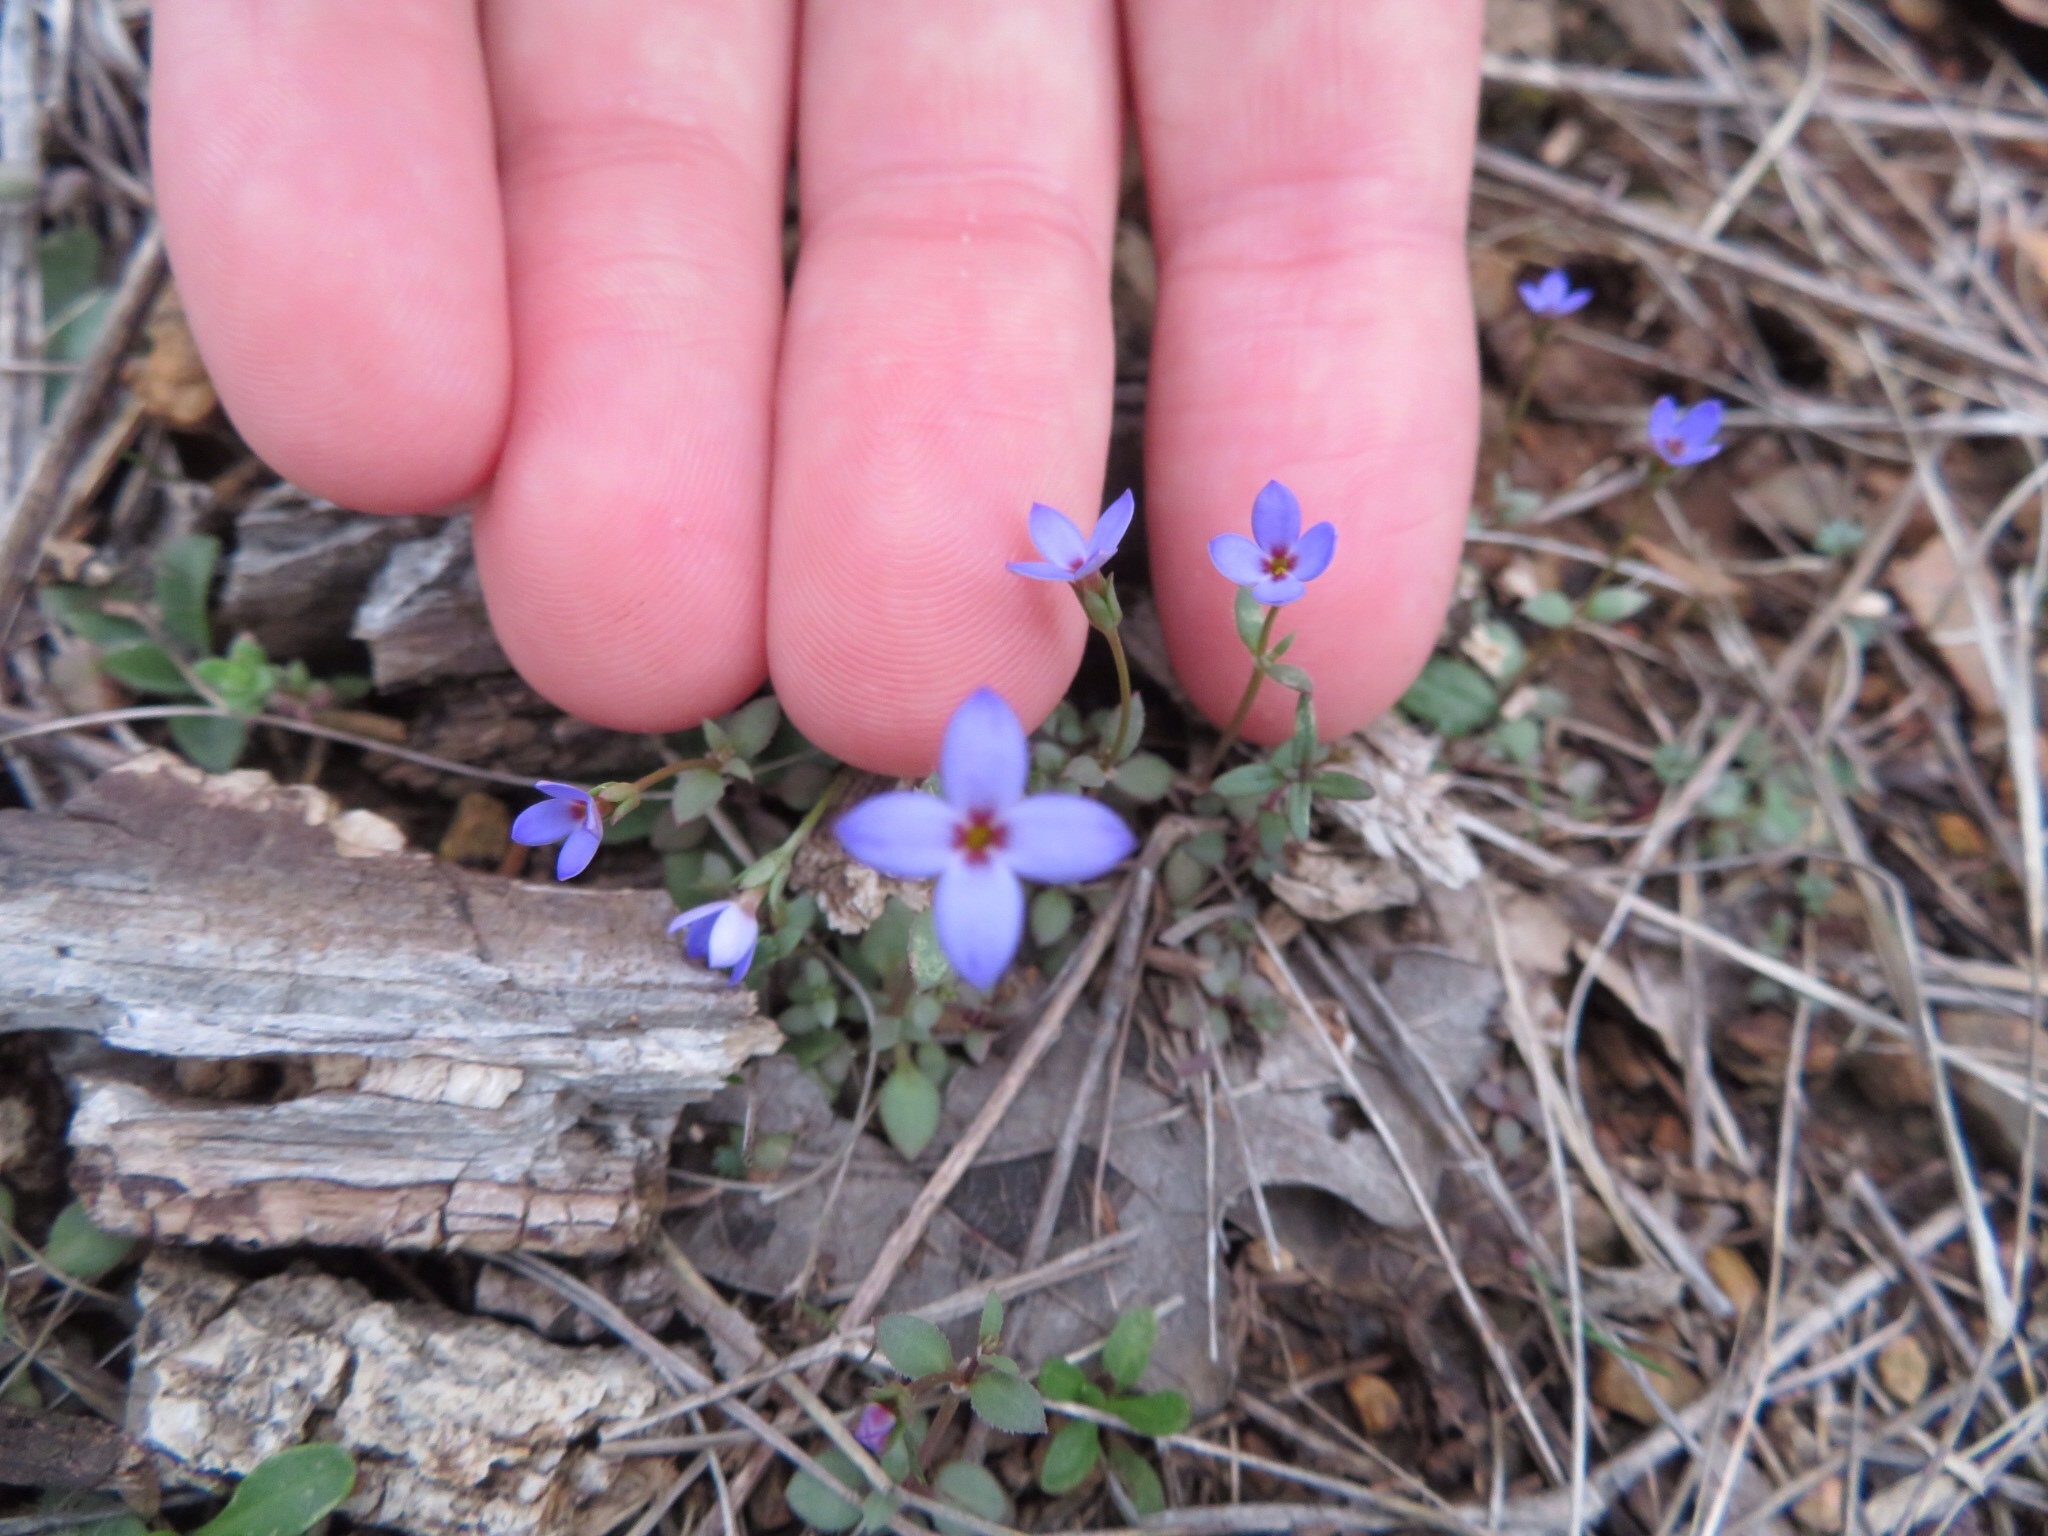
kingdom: Plantae
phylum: Tracheophyta
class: Magnoliopsida
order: Gentianales
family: Rubiaceae
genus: Houstonia
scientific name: Houstonia pusilla
